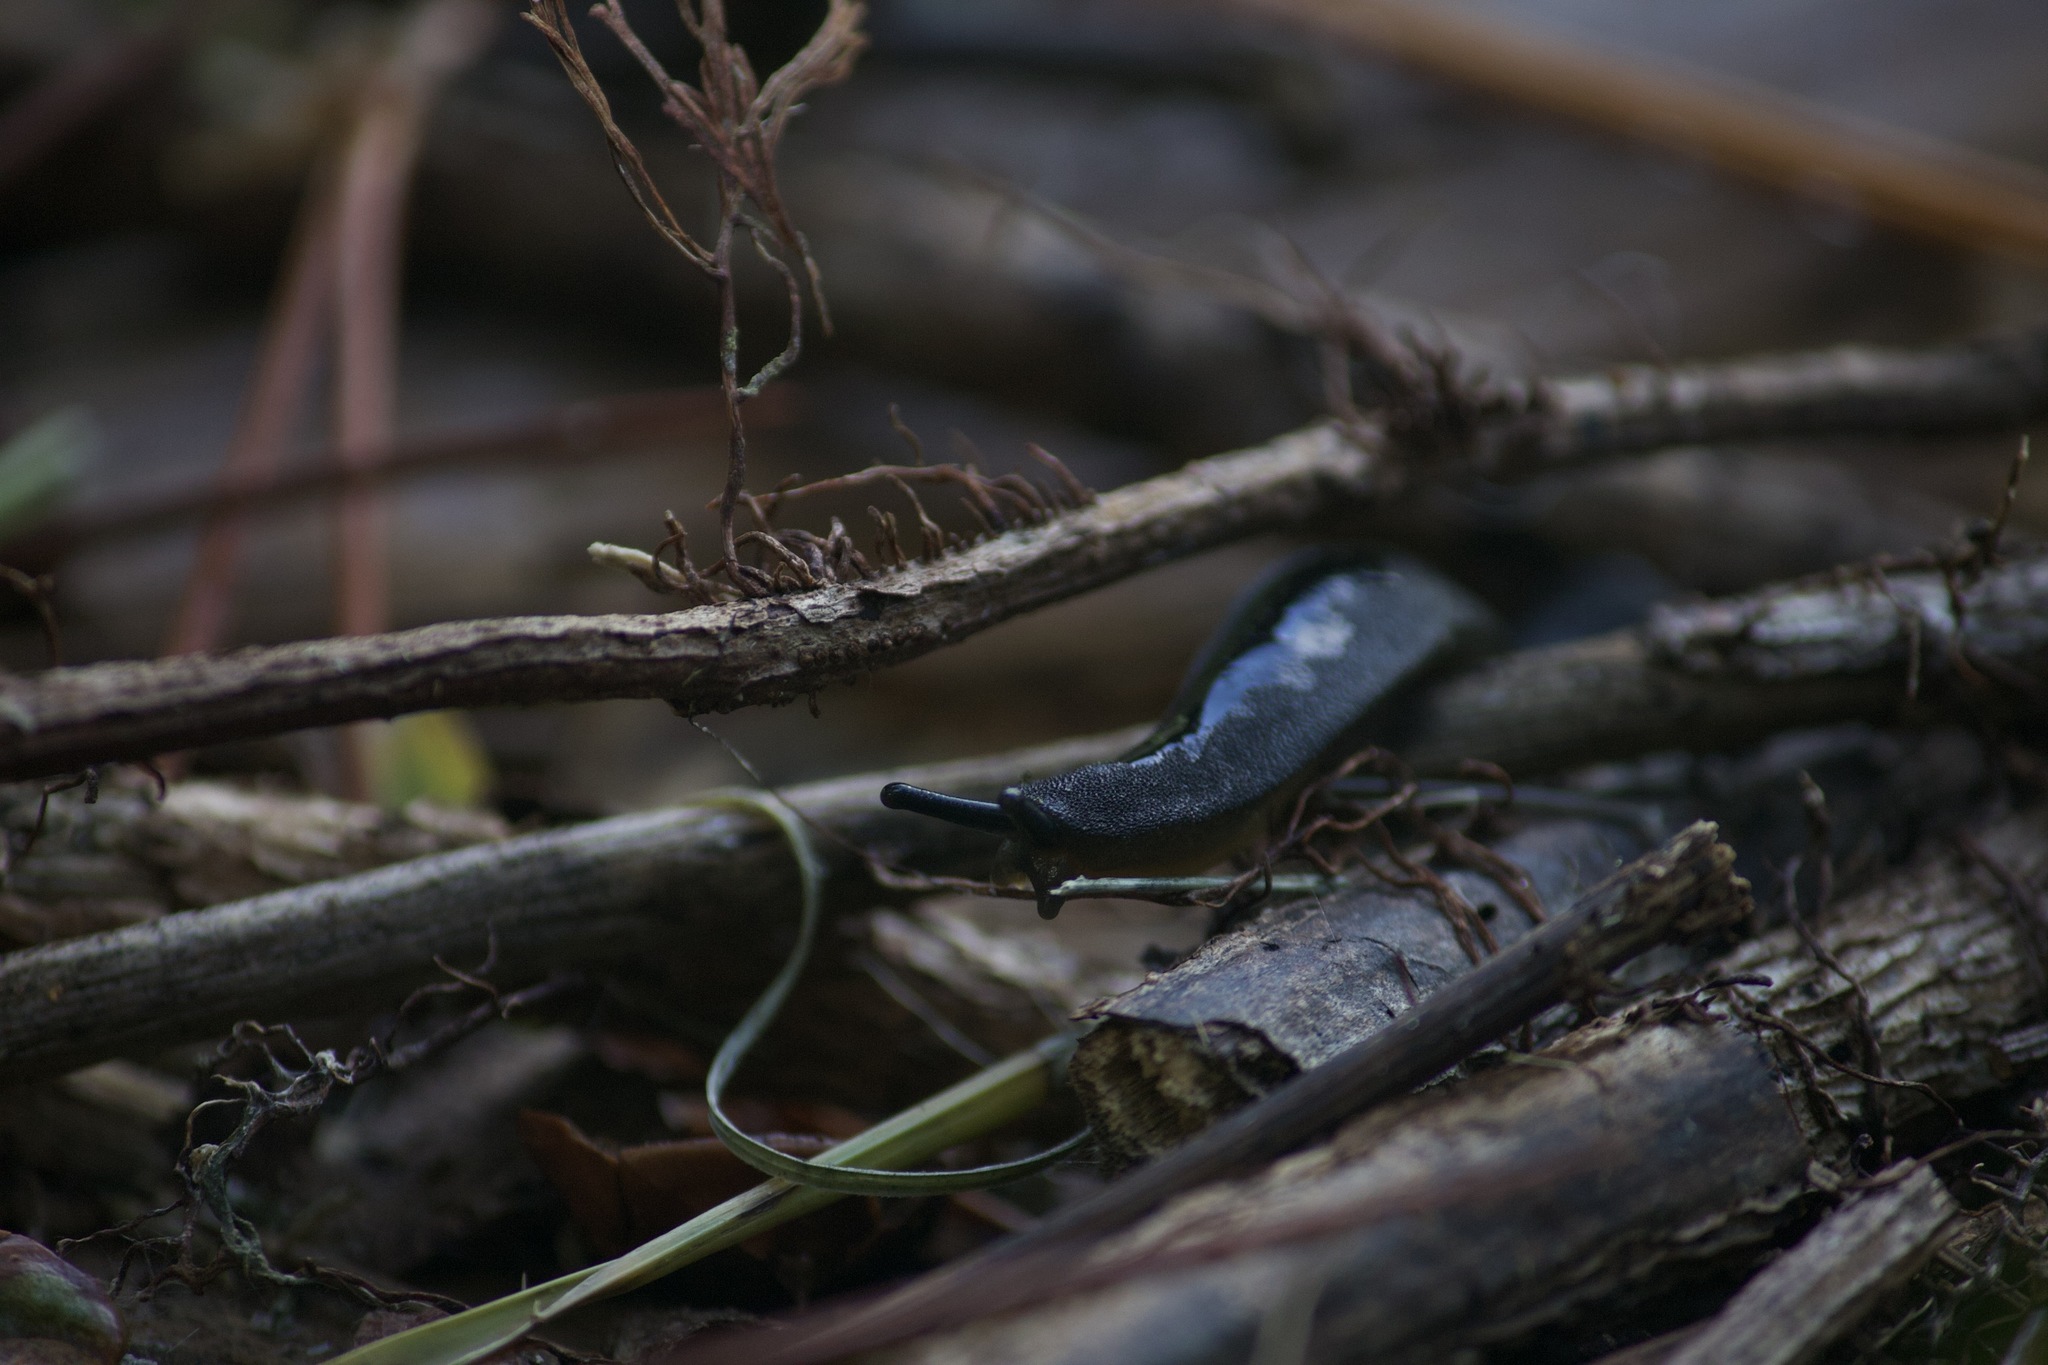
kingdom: Animalia
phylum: Mollusca
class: Gastropoda
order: Systellommatophora
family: Veronicellidae
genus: Belocaulus
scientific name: Belocaulus angustipes
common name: Black velvet leatherleaf slug
